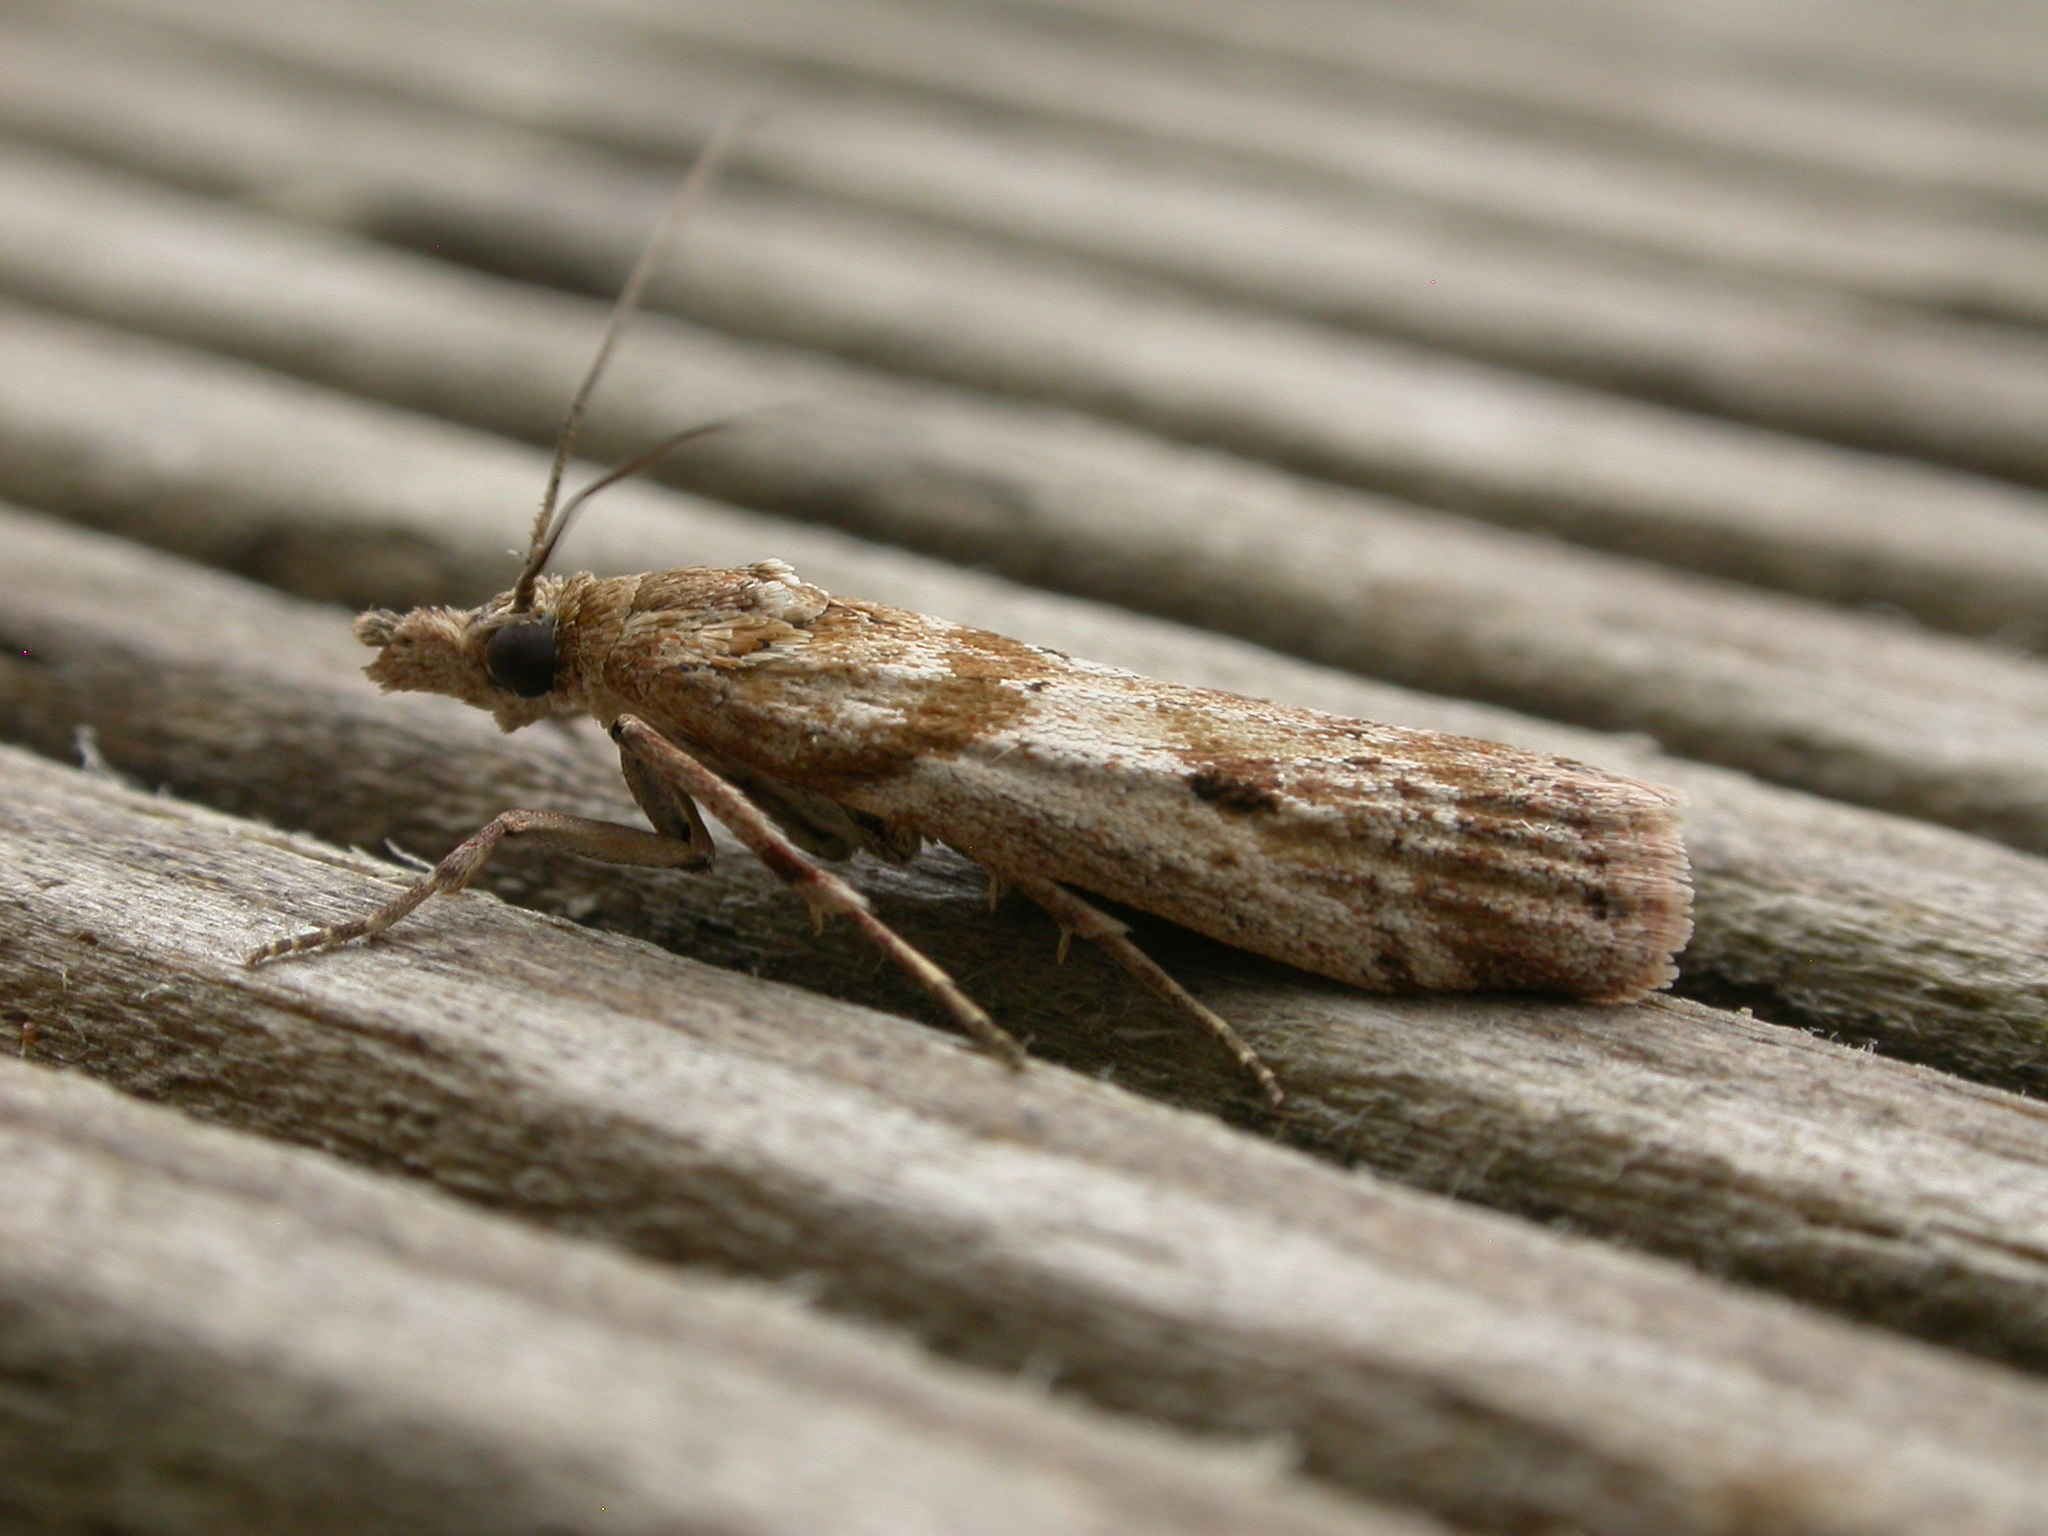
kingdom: Animalia
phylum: Arthropoda
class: Insecta
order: Lepidoptera
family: Pyralidae
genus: Vinicia
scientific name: Vinicia gypsopa
